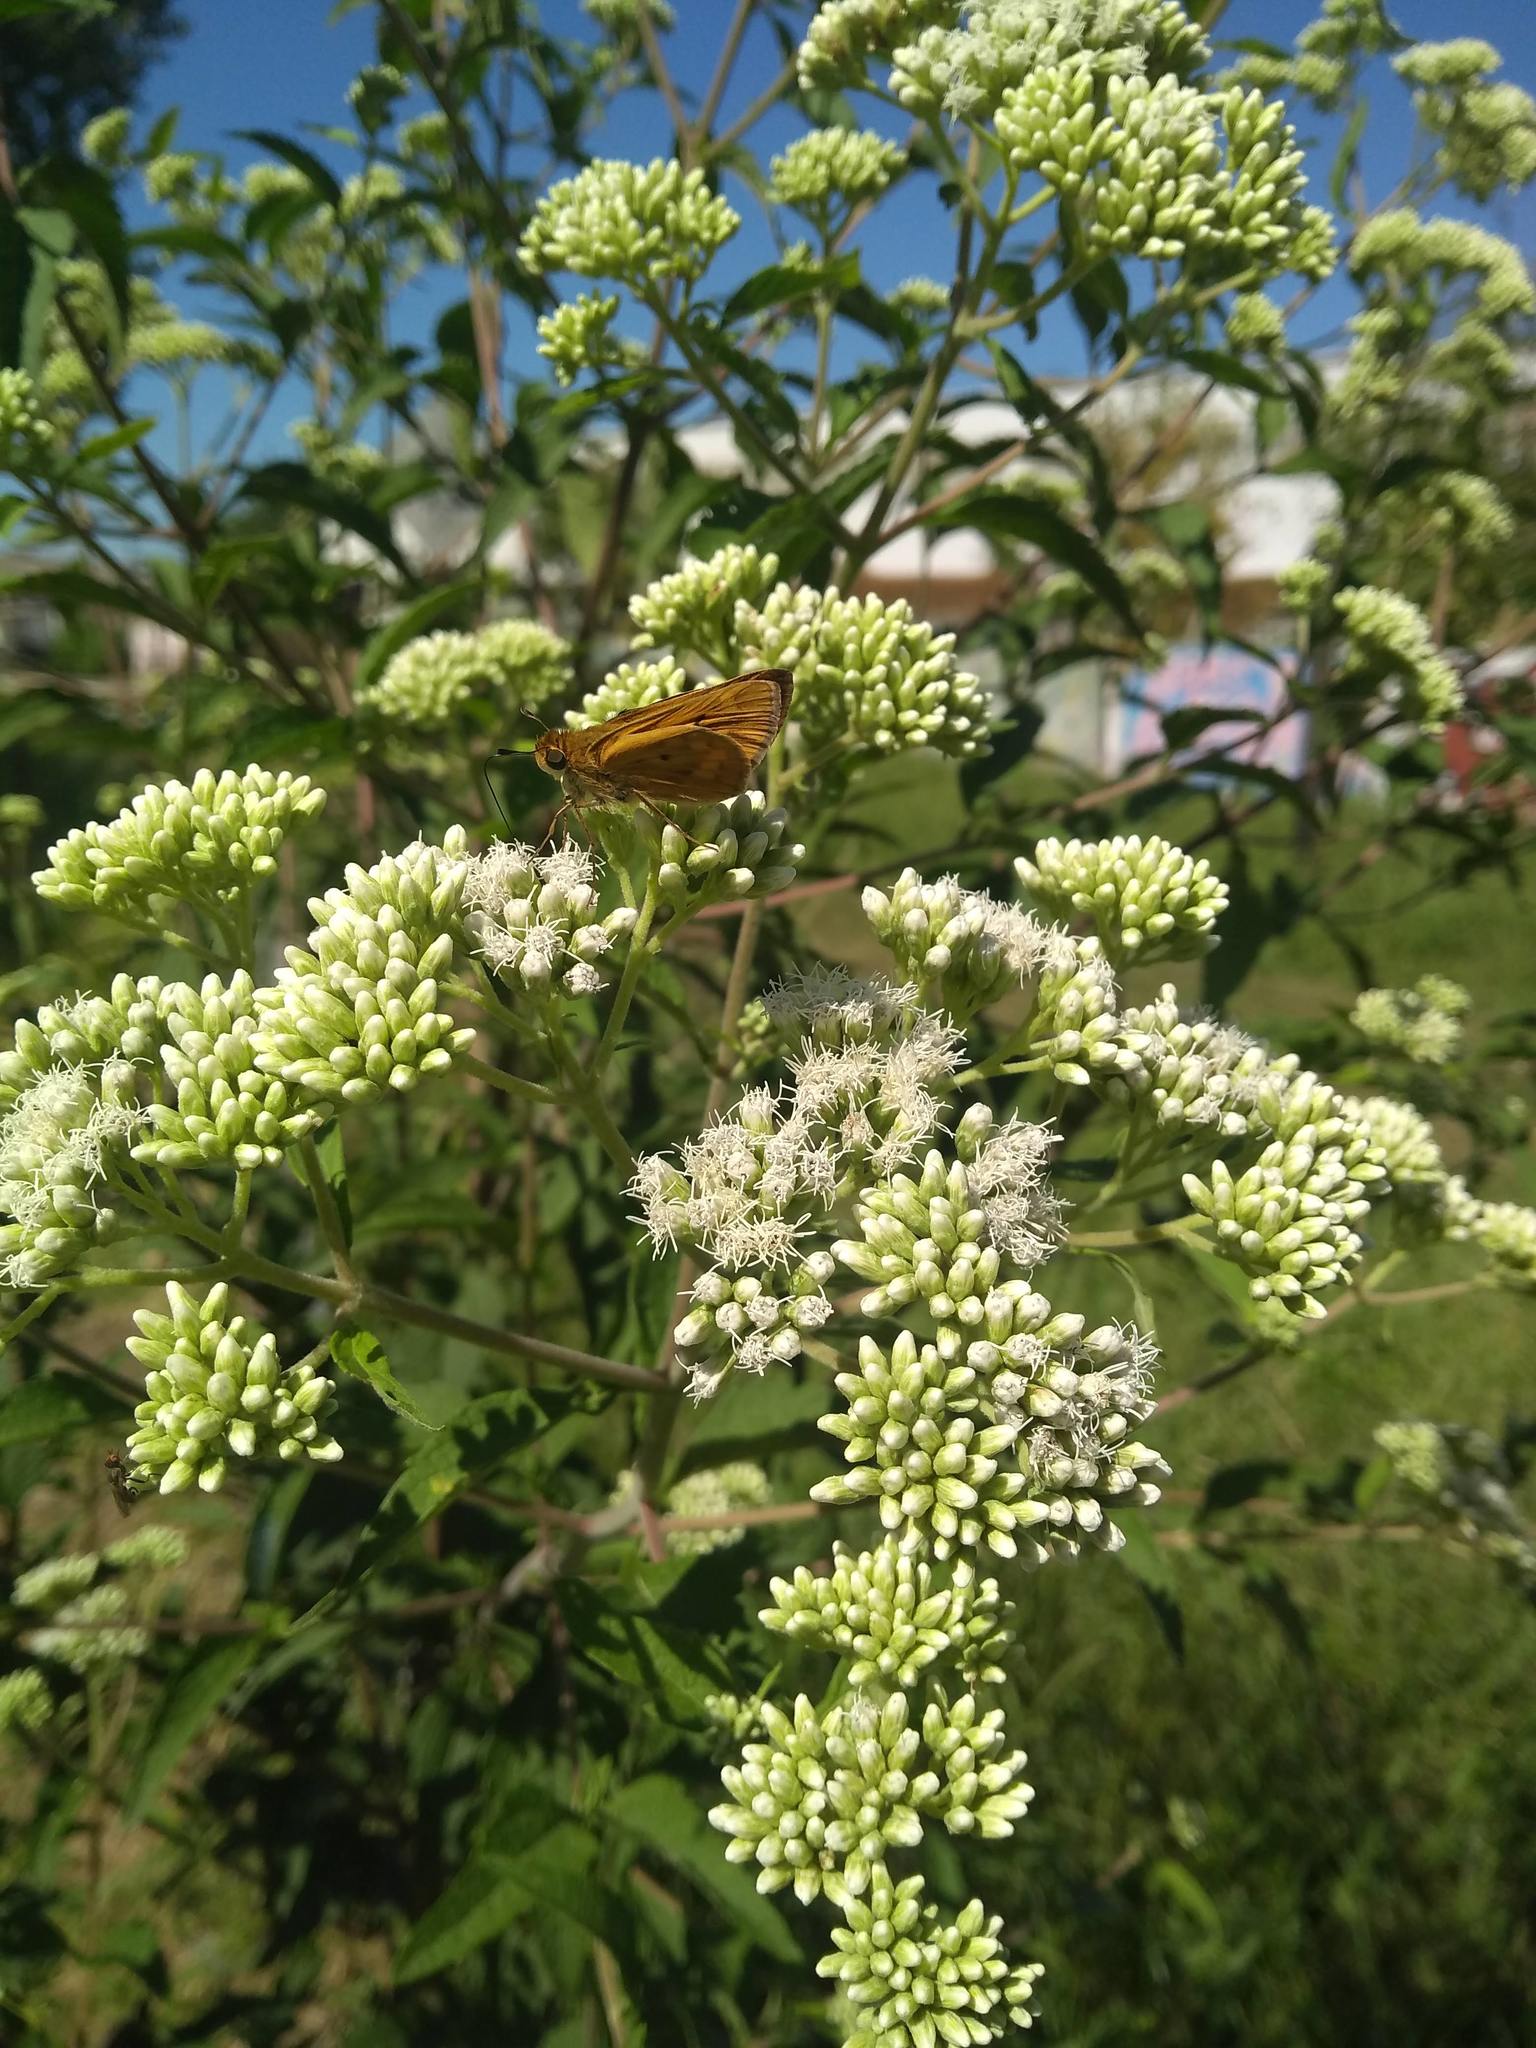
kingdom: Animalia
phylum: Arthropoda
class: Insecta
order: Lepidoptera
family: Hesperiidae
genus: Hylephila
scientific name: Hylephila phyleus
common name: Fiery skipper
